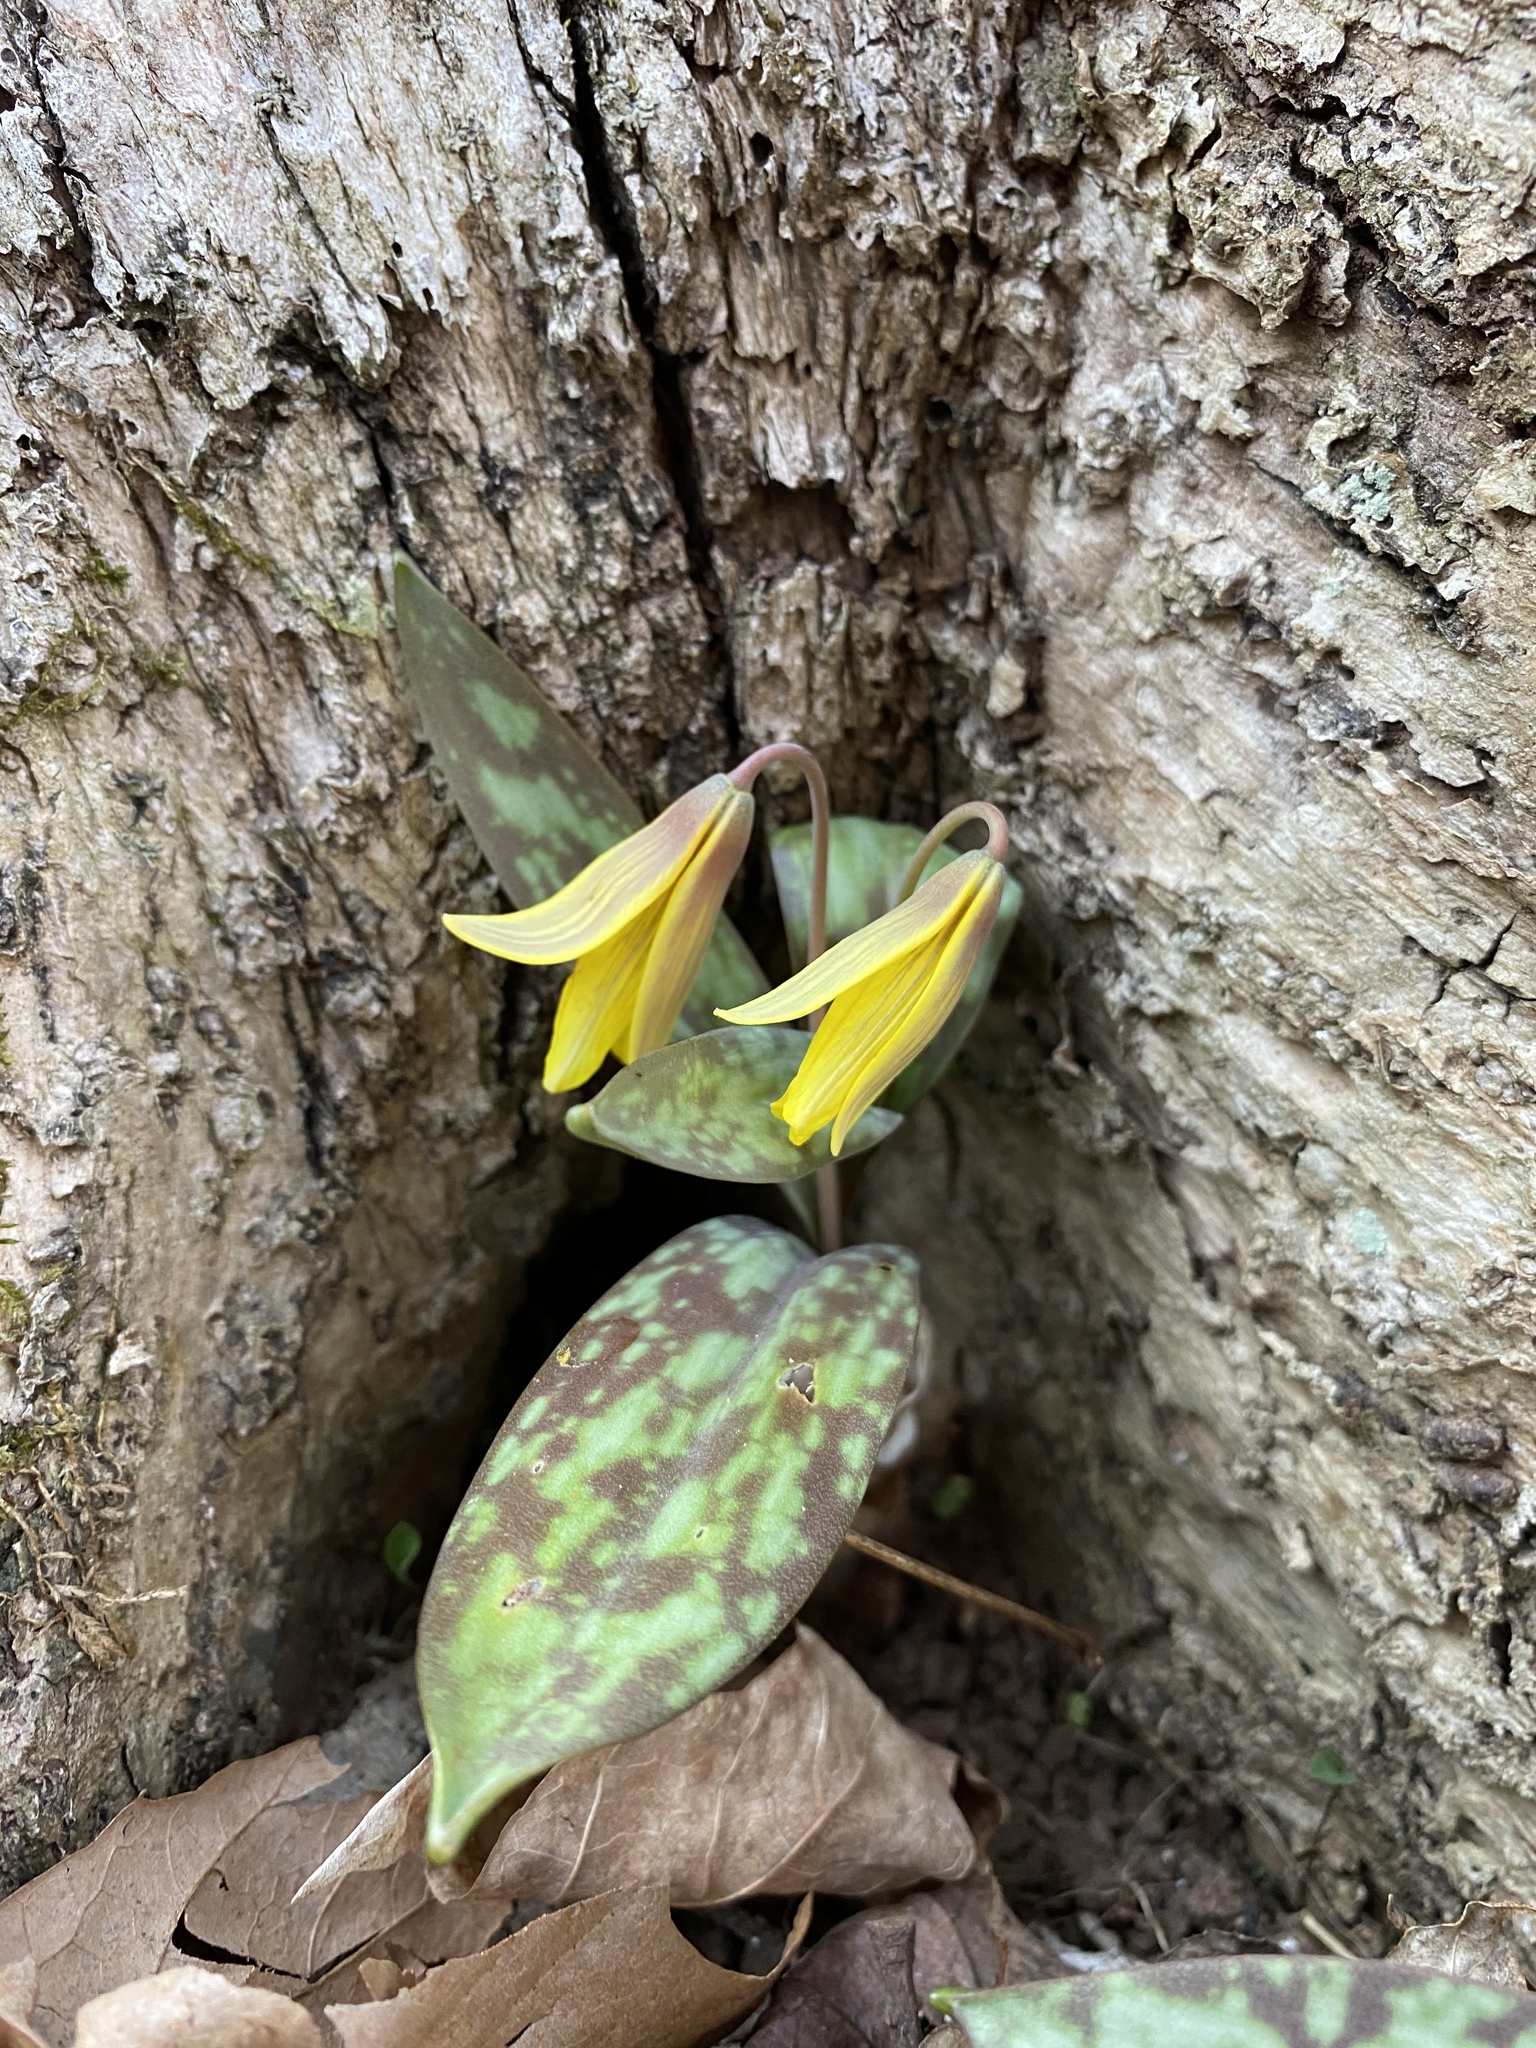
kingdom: Plantae
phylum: Tracheophyta
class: Liliopsida
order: Liliales
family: Liliaceae
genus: Erythronium
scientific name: Erythronium americanum
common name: Yellow adder's-tongue
